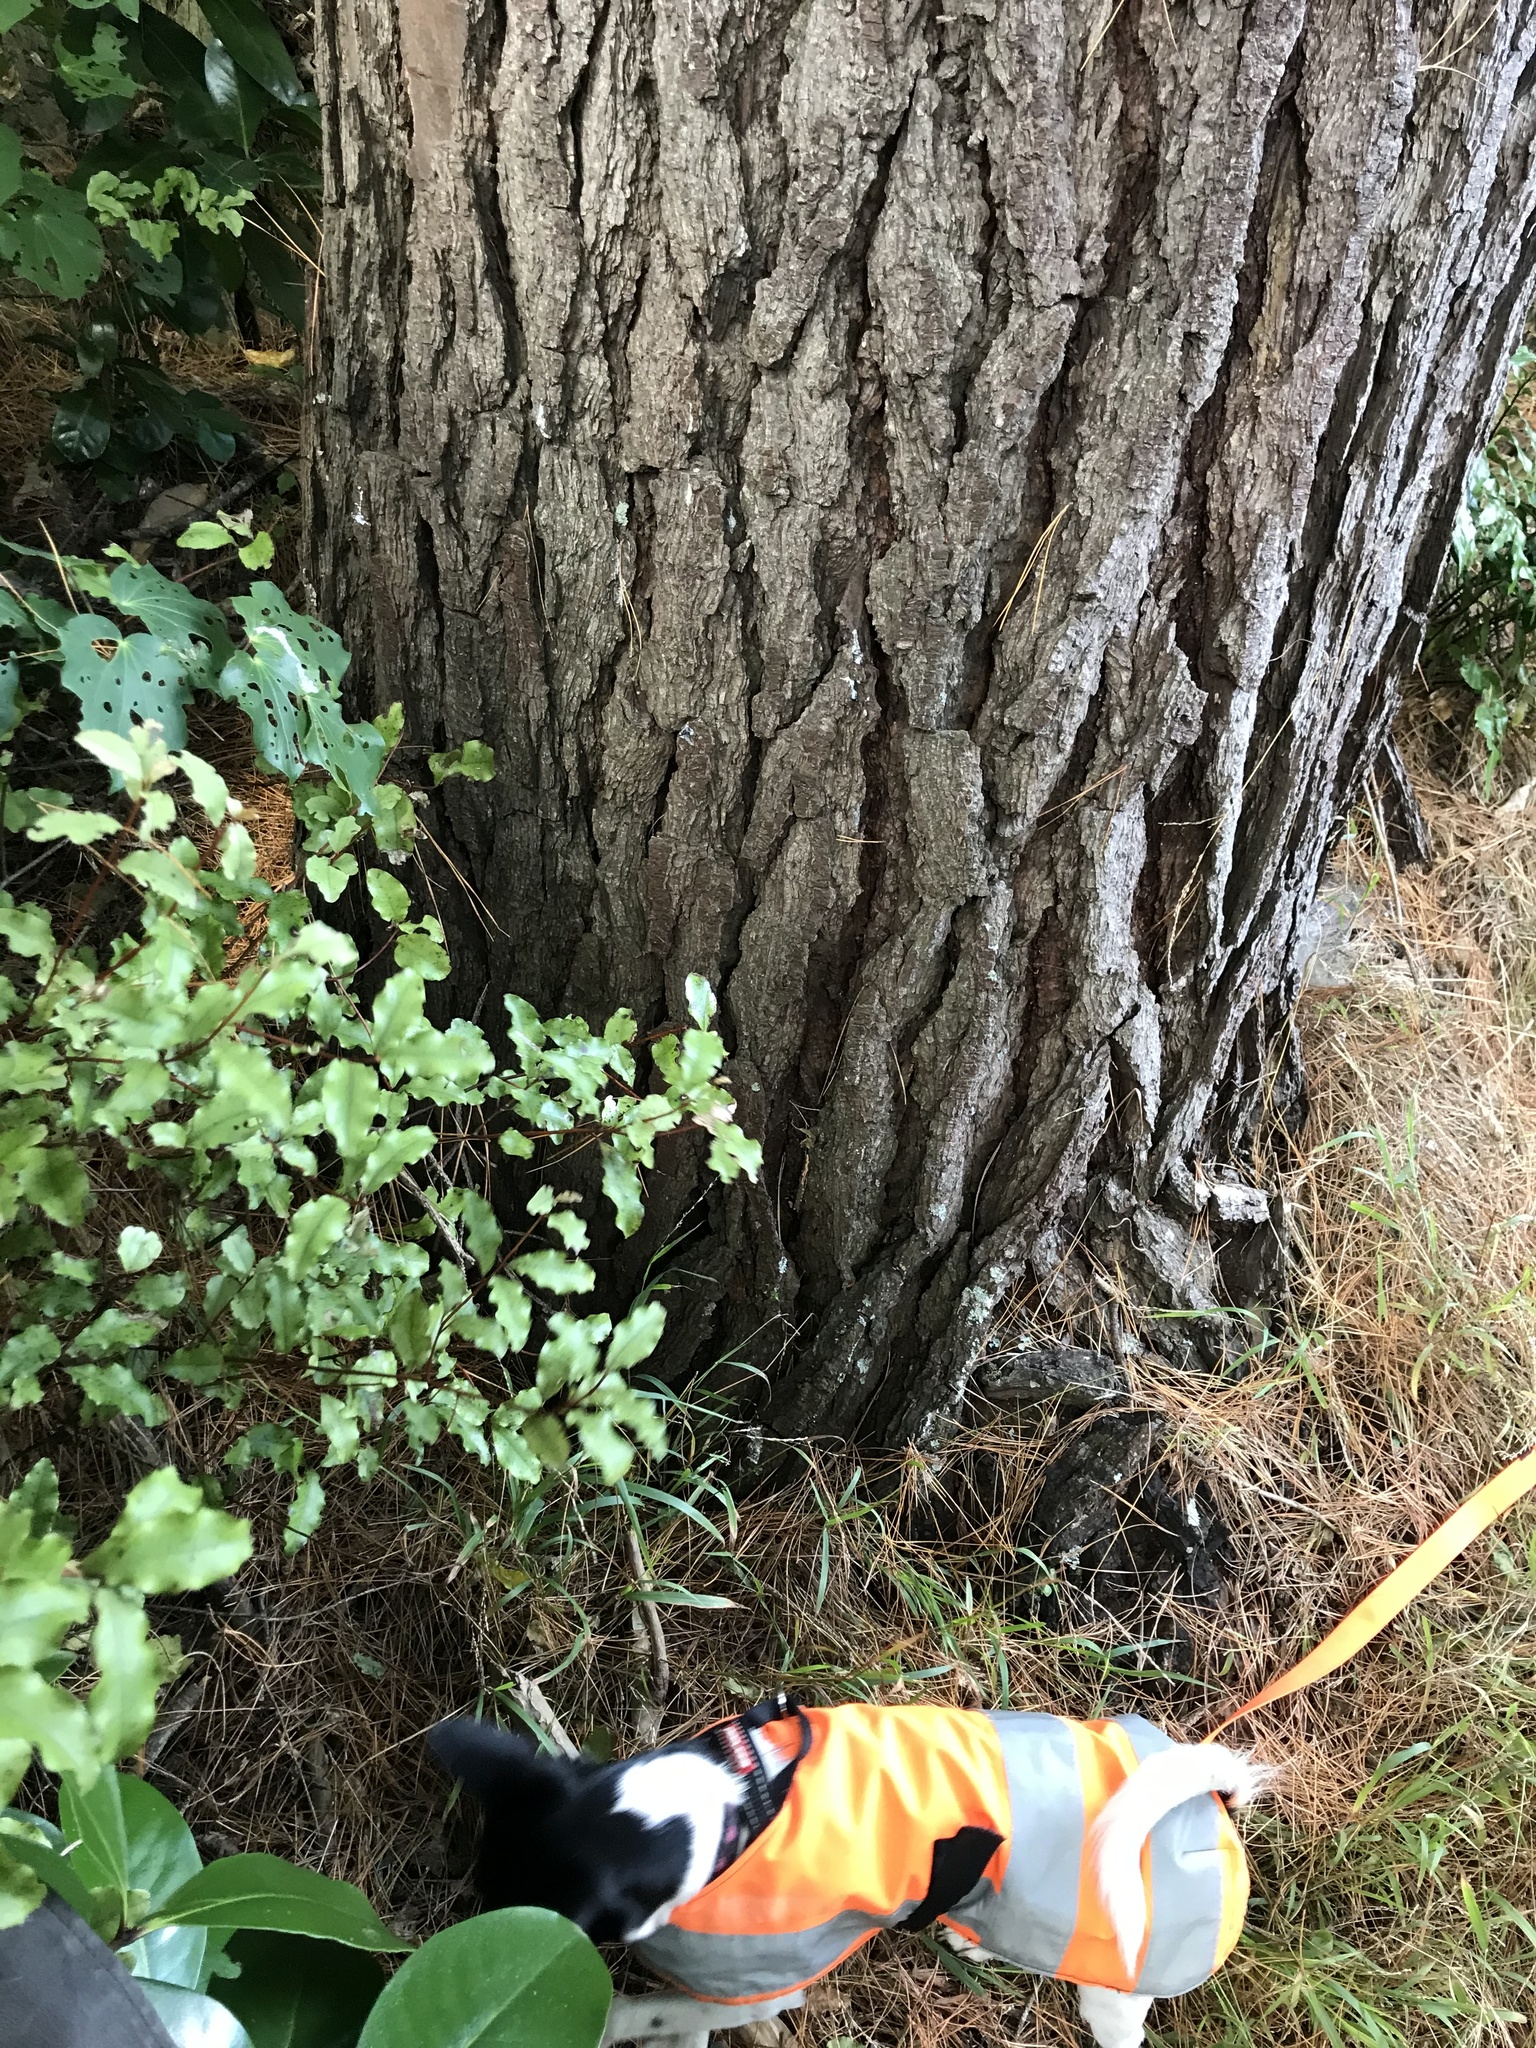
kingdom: Plantae
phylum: Tracheophyta
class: Pinopsida
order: Pinales
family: Pinaceae
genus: Pinus
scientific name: Pinus radiata
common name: Monterey pine
